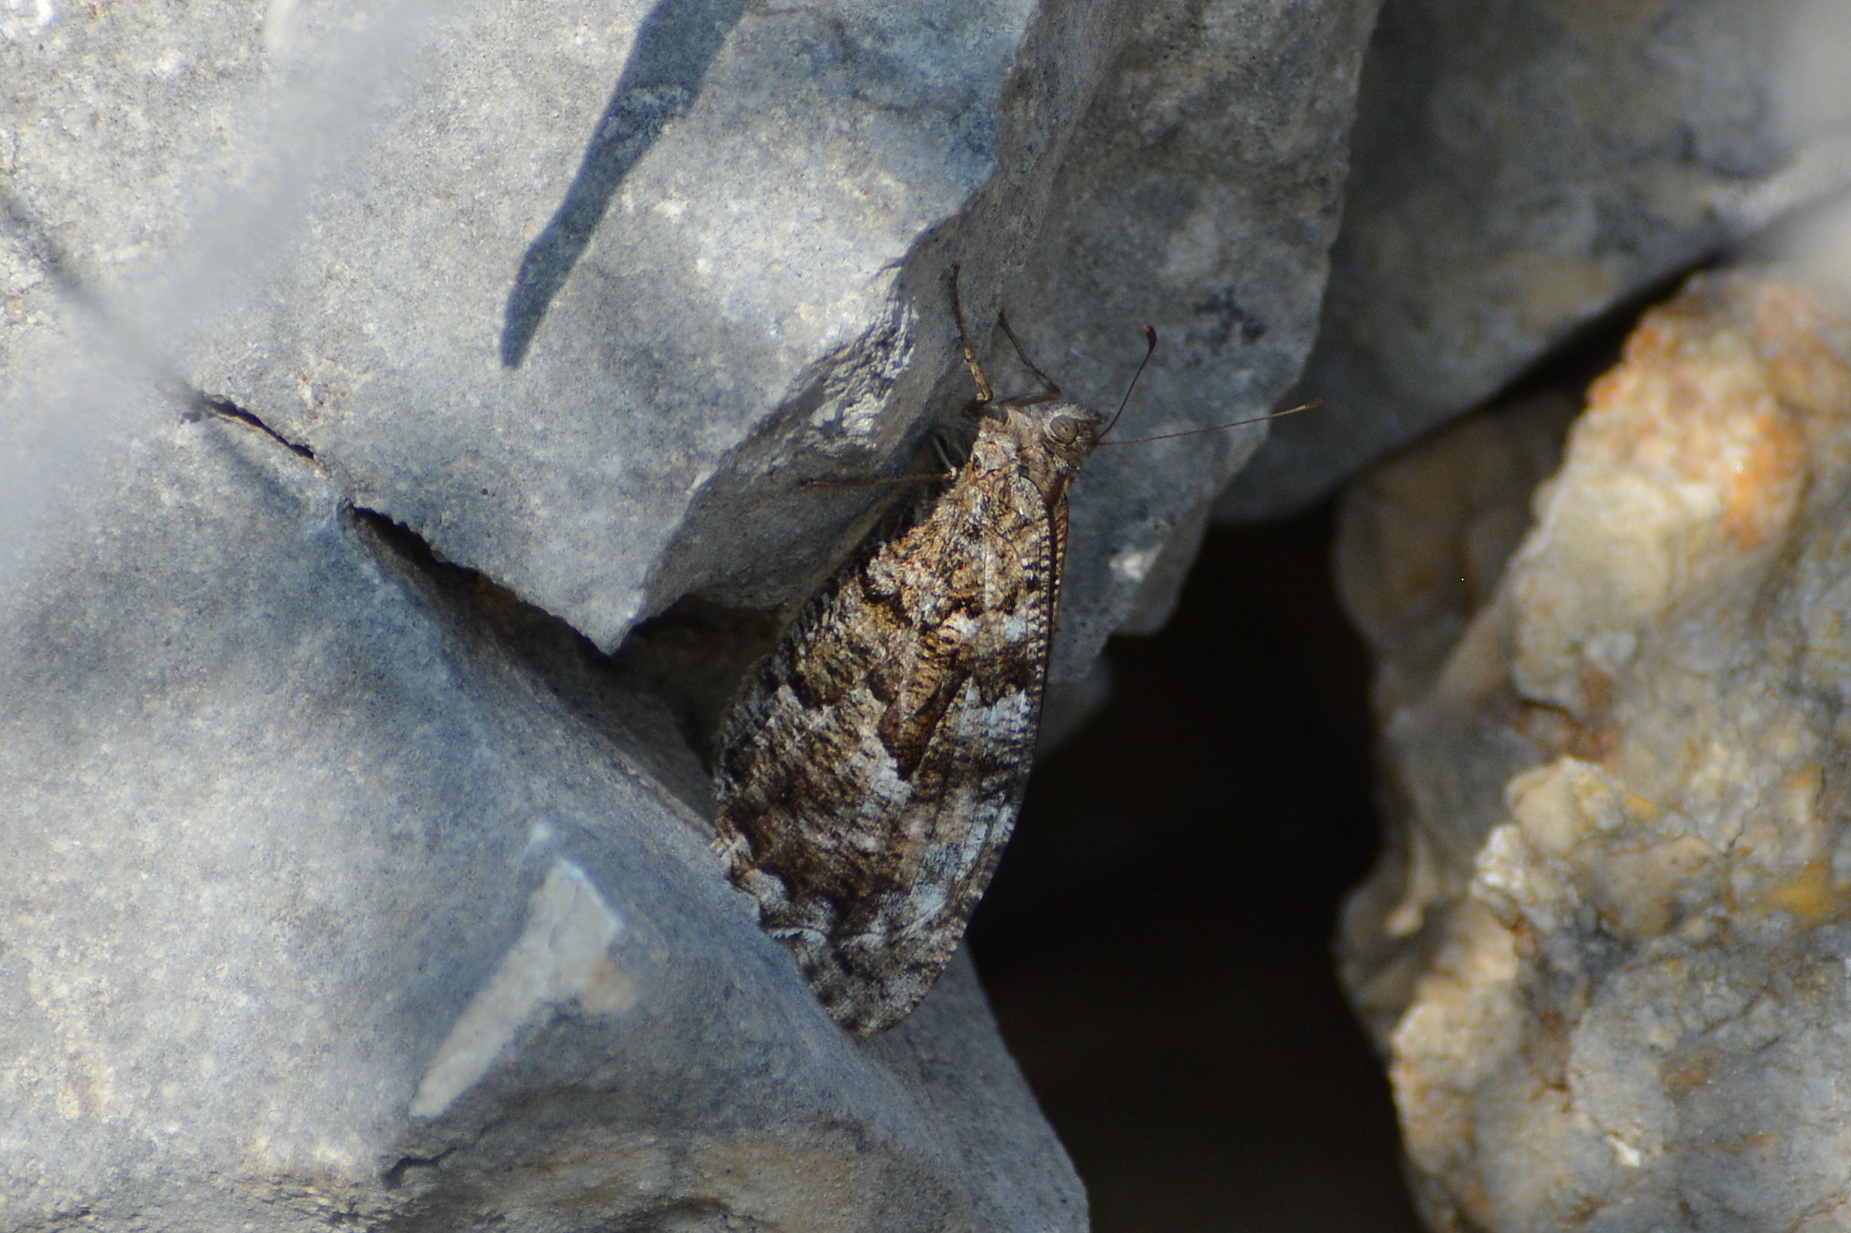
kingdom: Animalia
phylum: Arthropoda
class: Insecta
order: Lepidoptera
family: Nymphalidae
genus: Hipparchia
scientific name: Hipparchia semele
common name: Grayling
